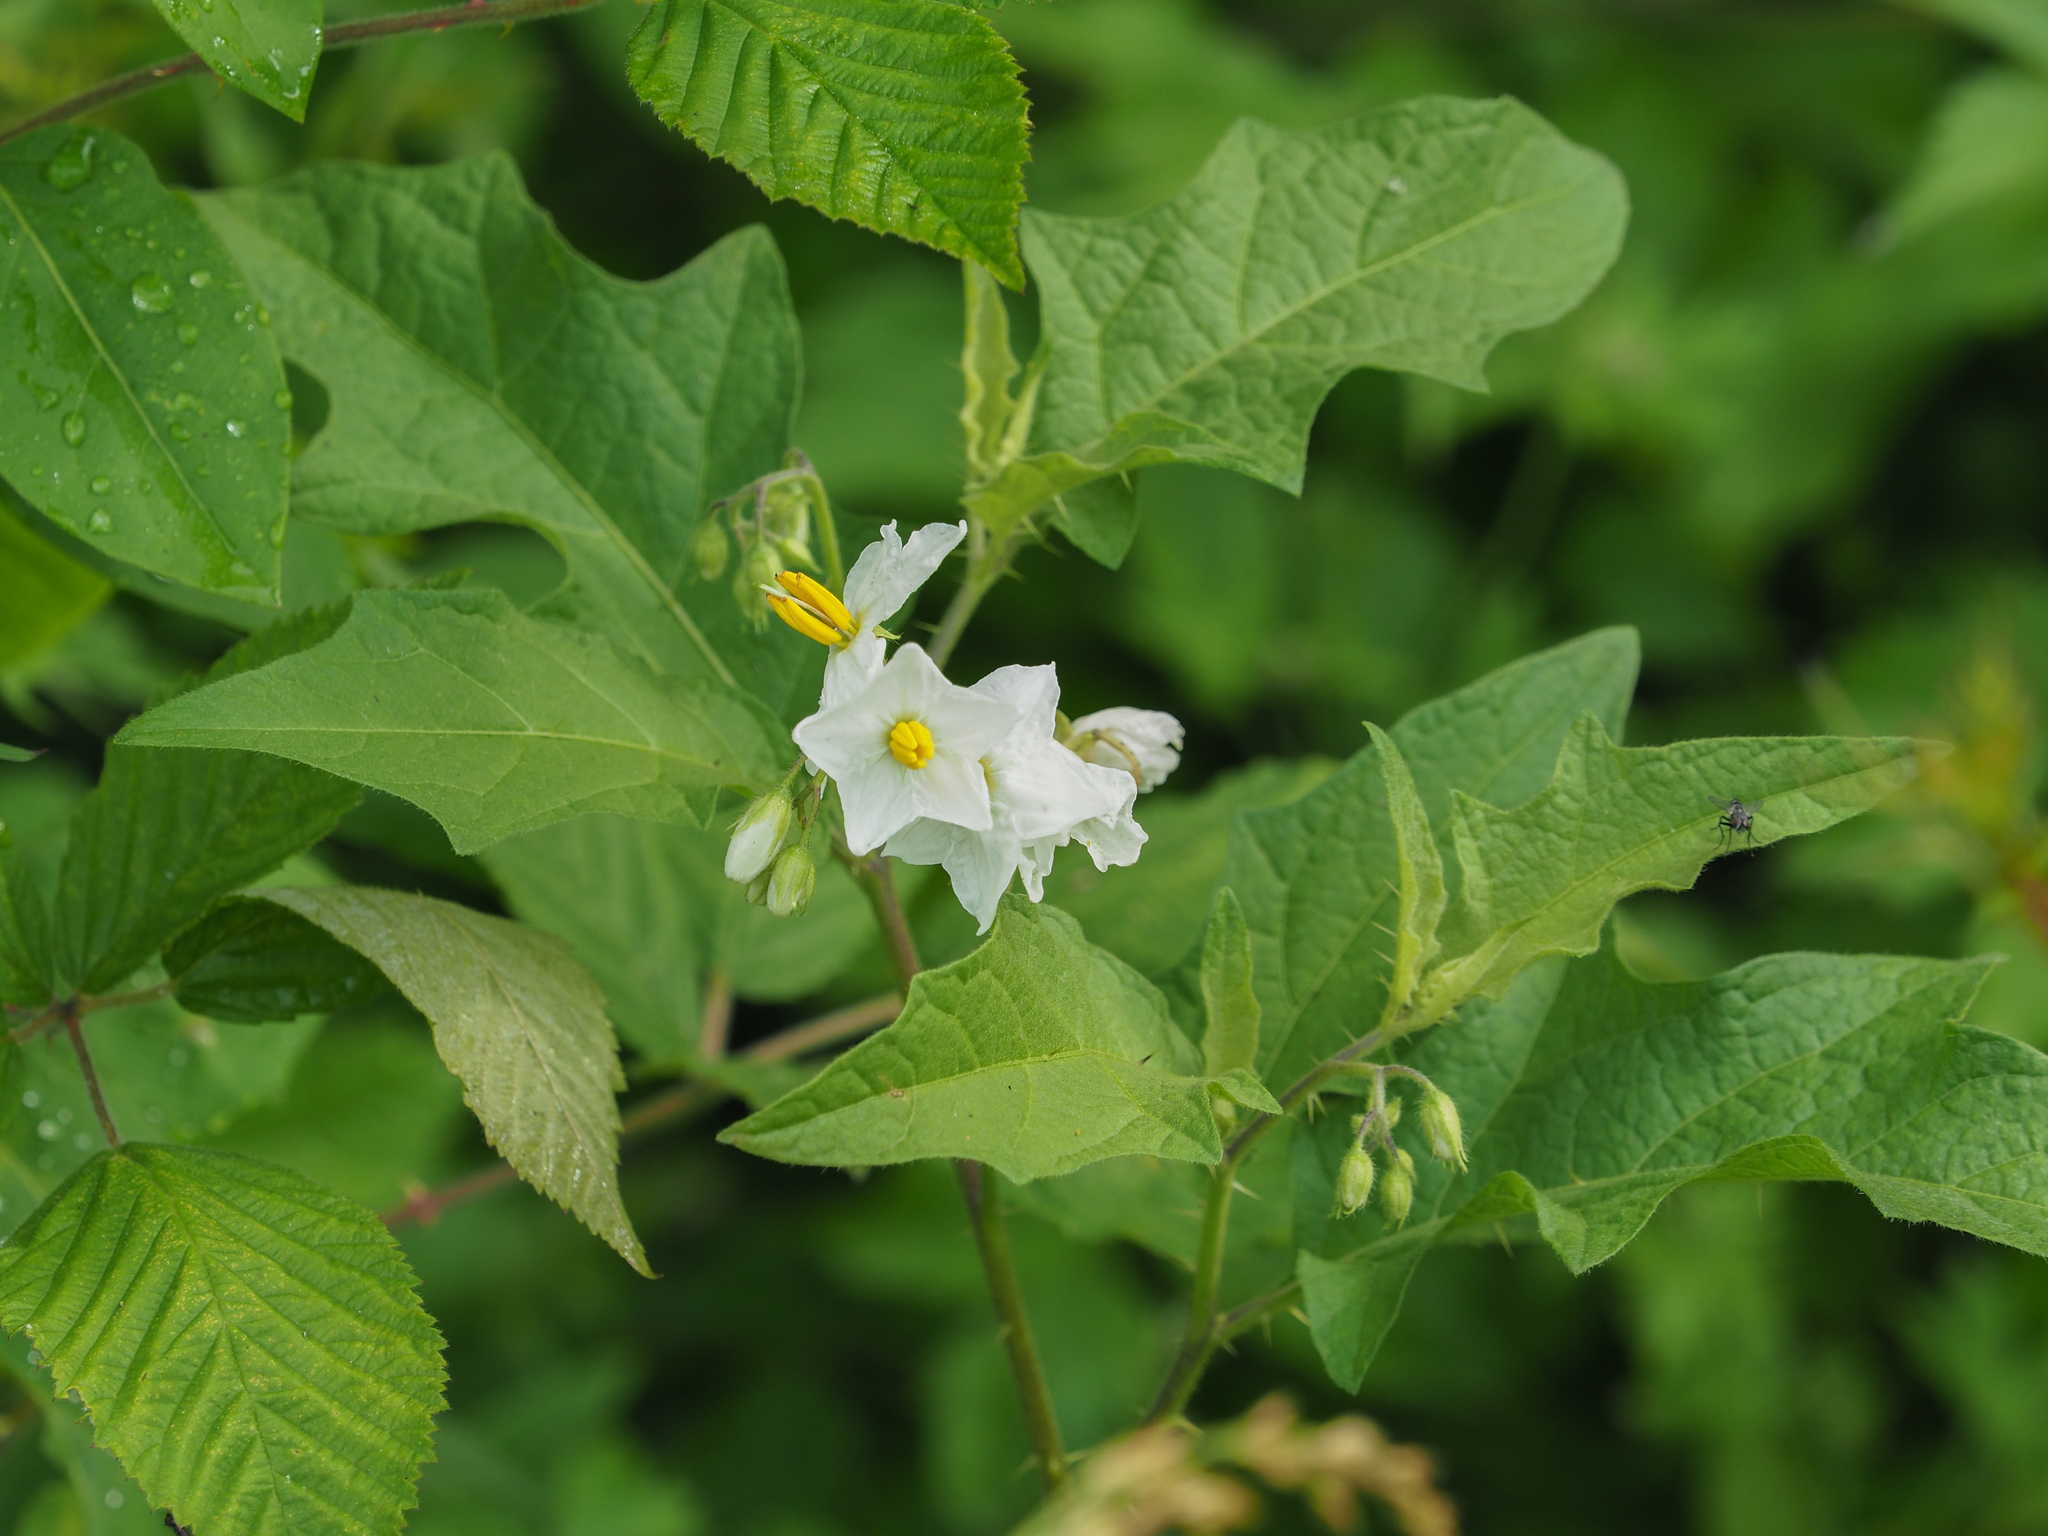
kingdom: Plantae
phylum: Tracheophyta
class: Magnoliopsida
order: Solanales
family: Solanaceae
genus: Solanum
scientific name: Solanum carolinense
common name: Horse-nettle
